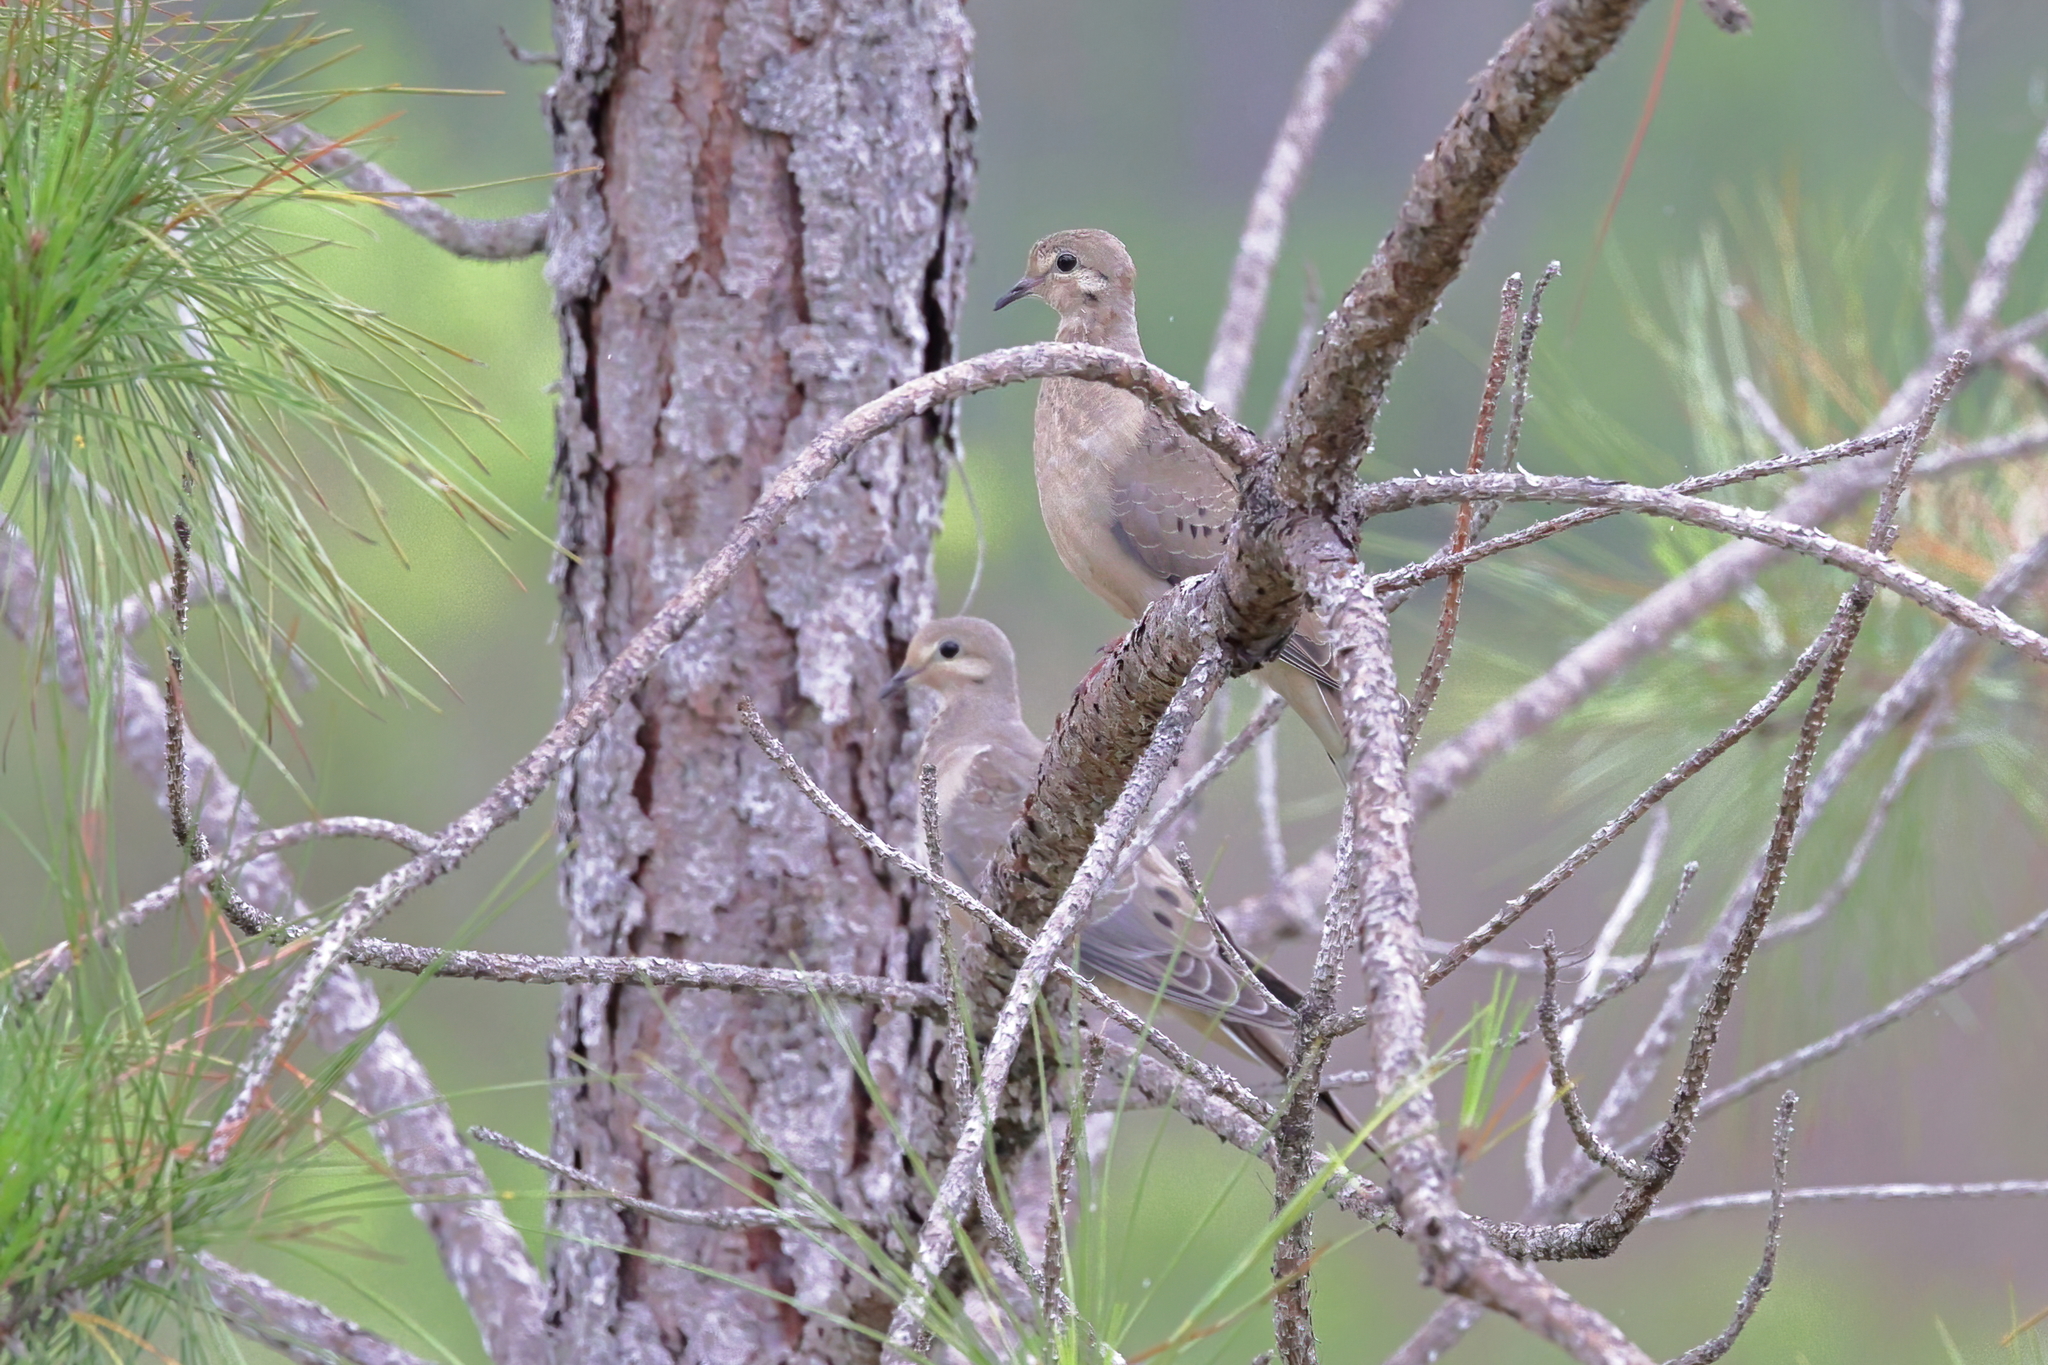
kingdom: Animalia
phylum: Chordata
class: Aves
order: Columbiformes
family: Columbidae
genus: Zenaida
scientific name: Zenaida macroura
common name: Mourning dove
